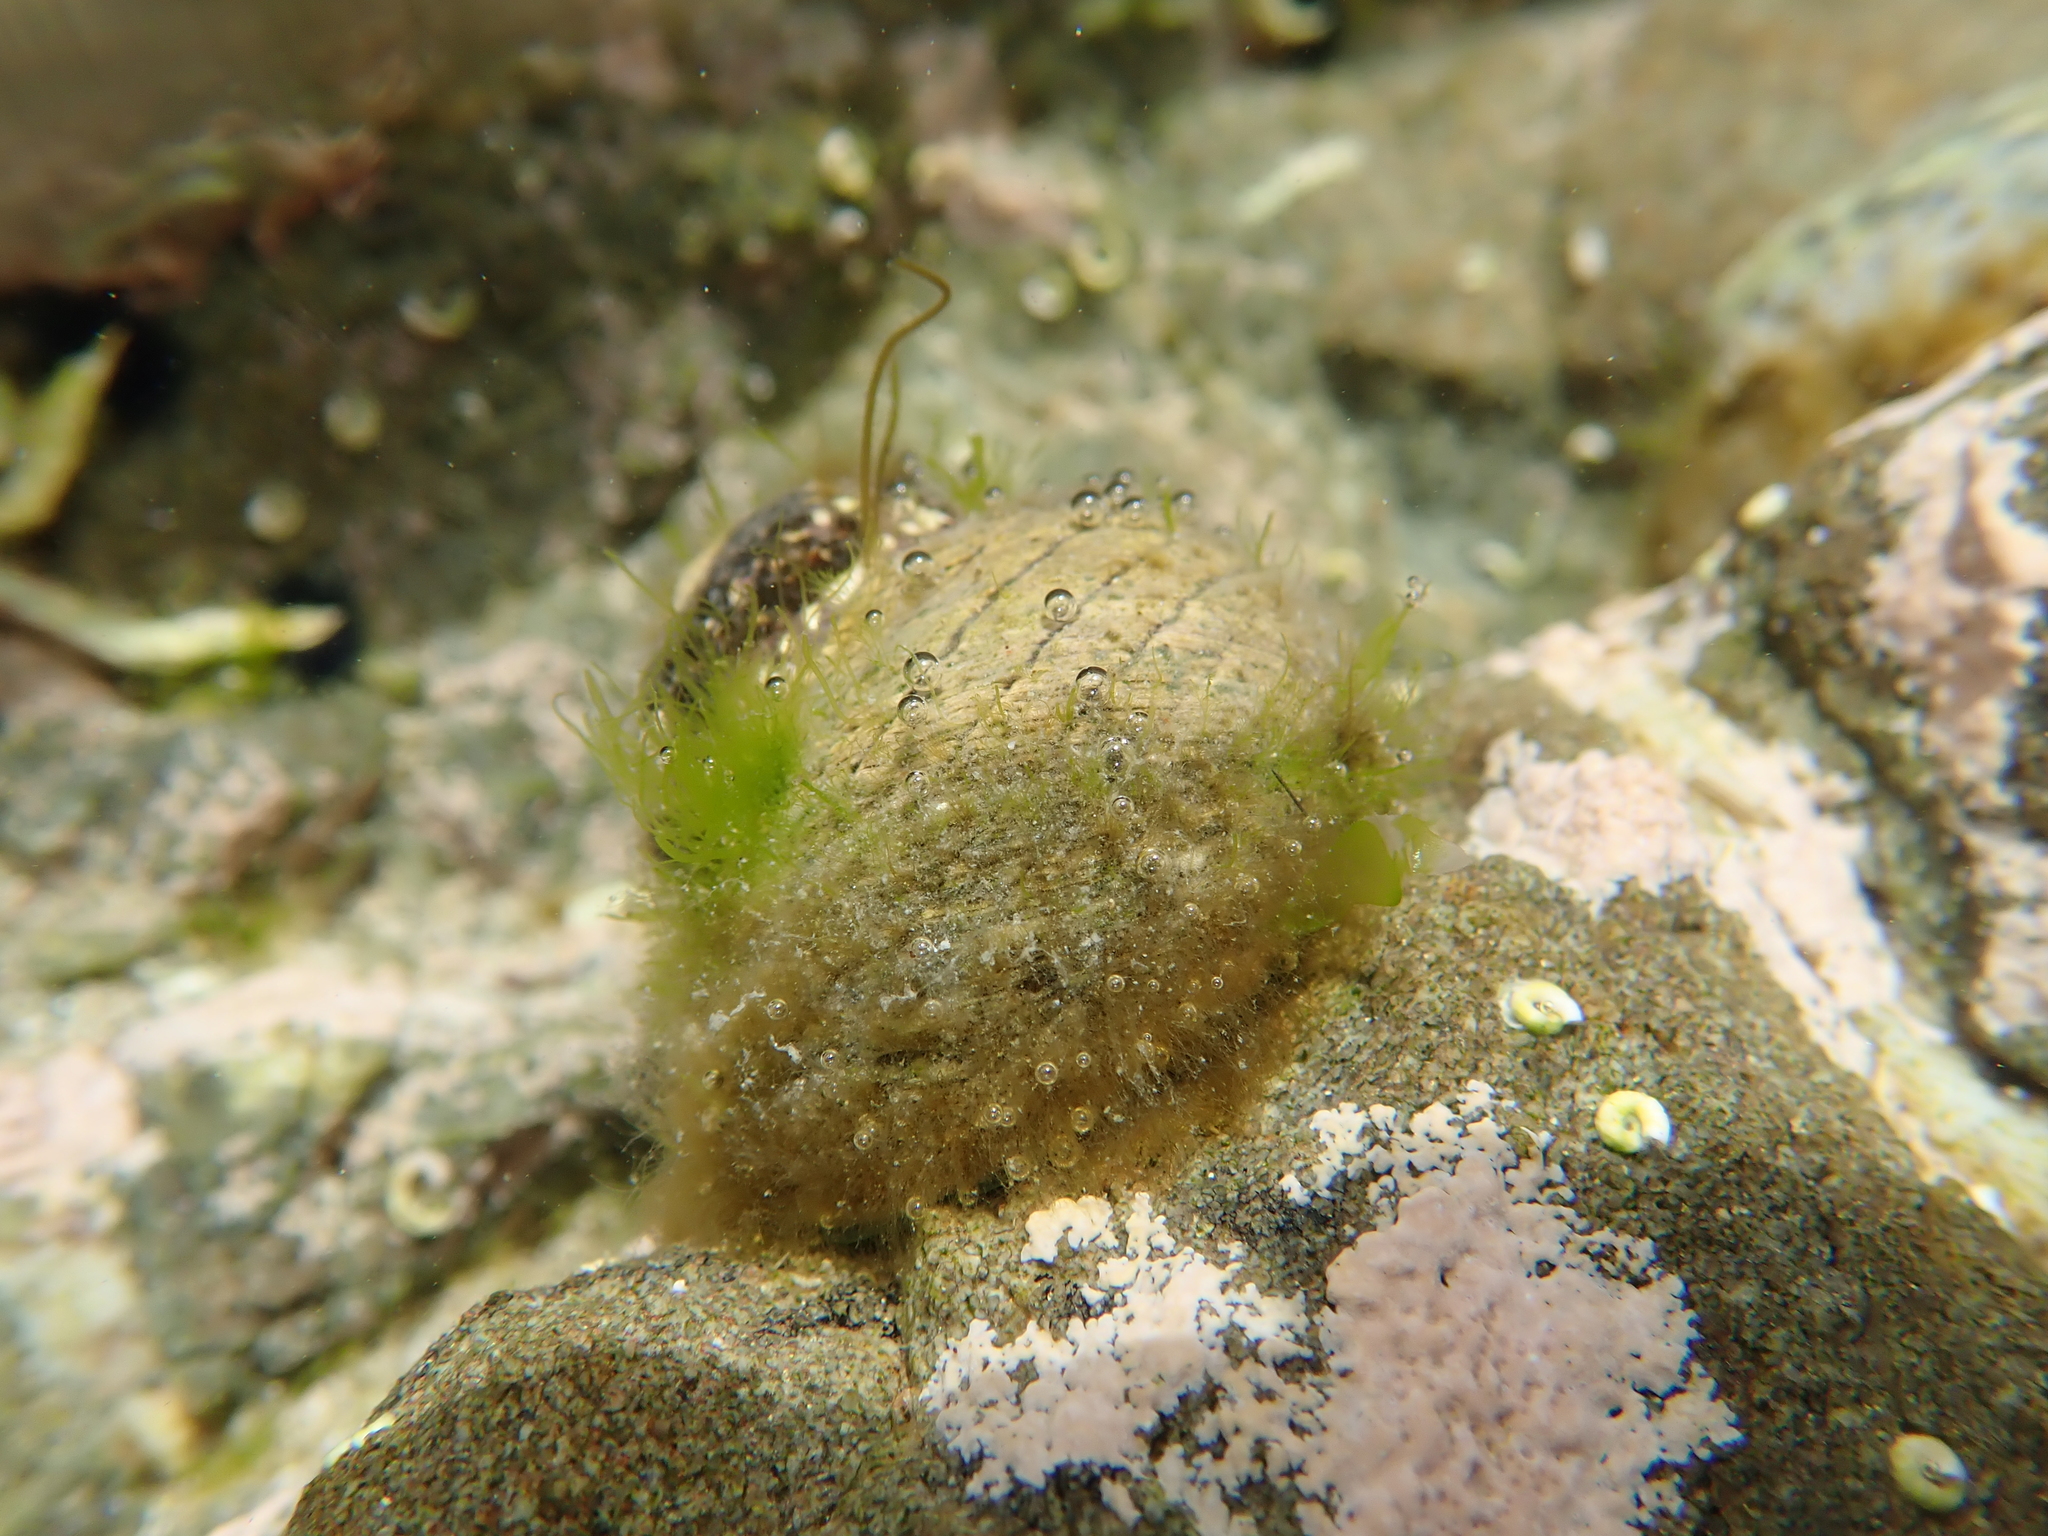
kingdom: Animalia
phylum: Mollusca
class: Gastropoda
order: Trochida
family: Trochidae
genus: Diloma
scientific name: Diloma aethiops
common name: Scorched monodont
